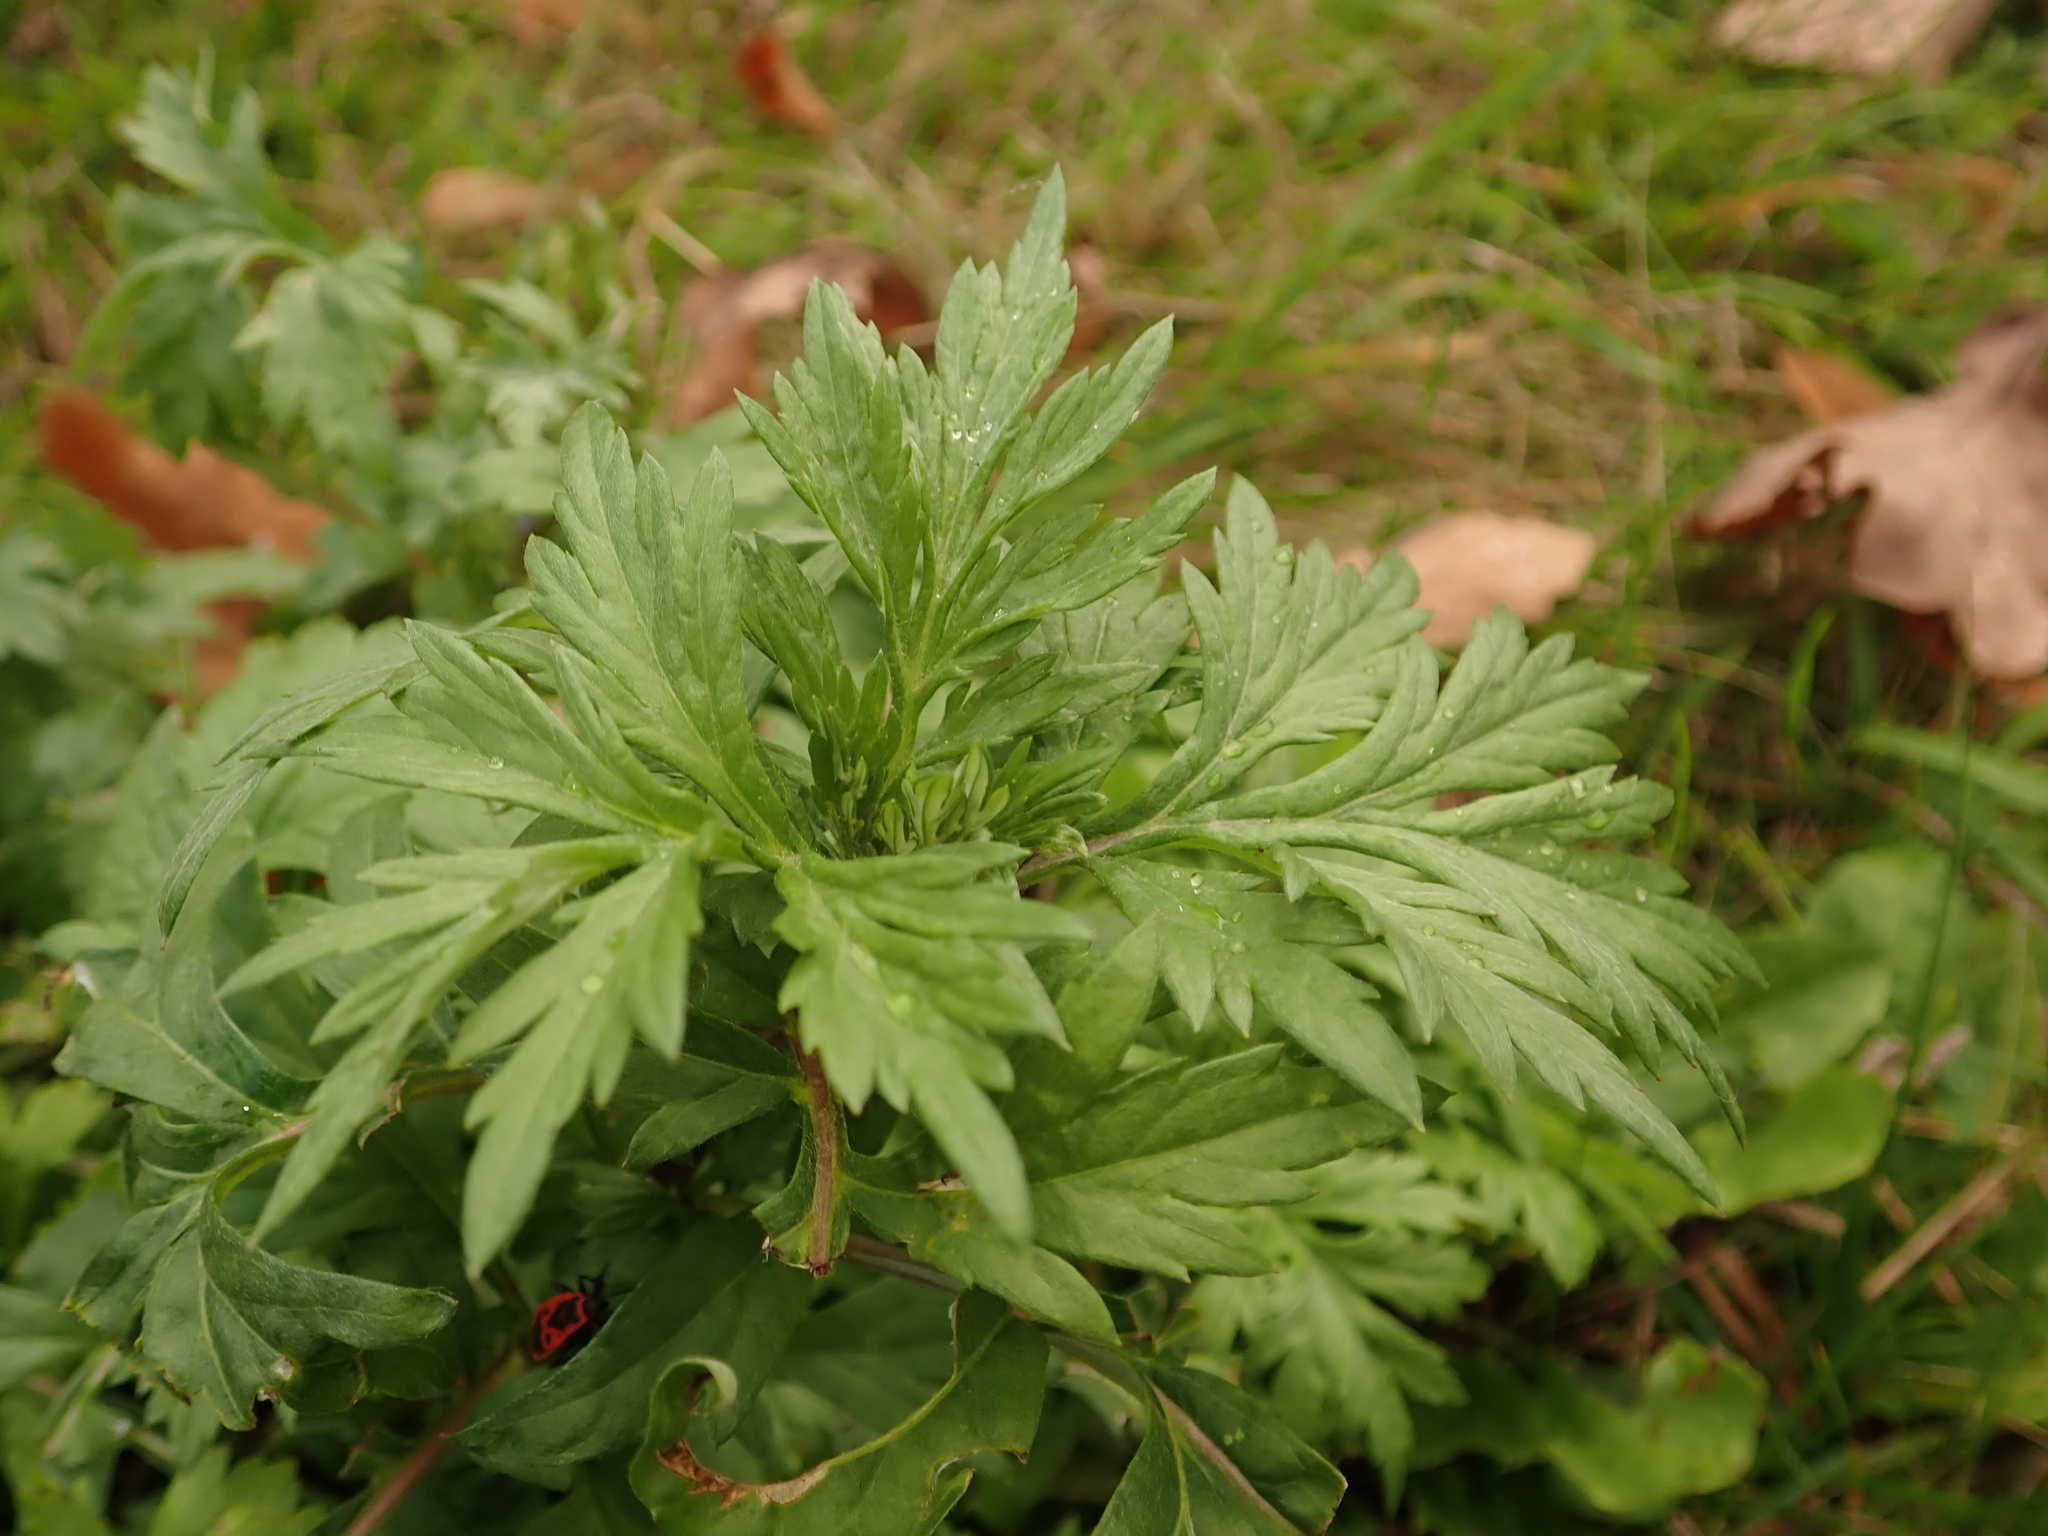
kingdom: Plantae
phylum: Tracheophyta
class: Magnoliopsida
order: Asterales
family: Asteraceae
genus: Artemisia
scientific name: Artemisia vulgaris
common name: Mugwort
